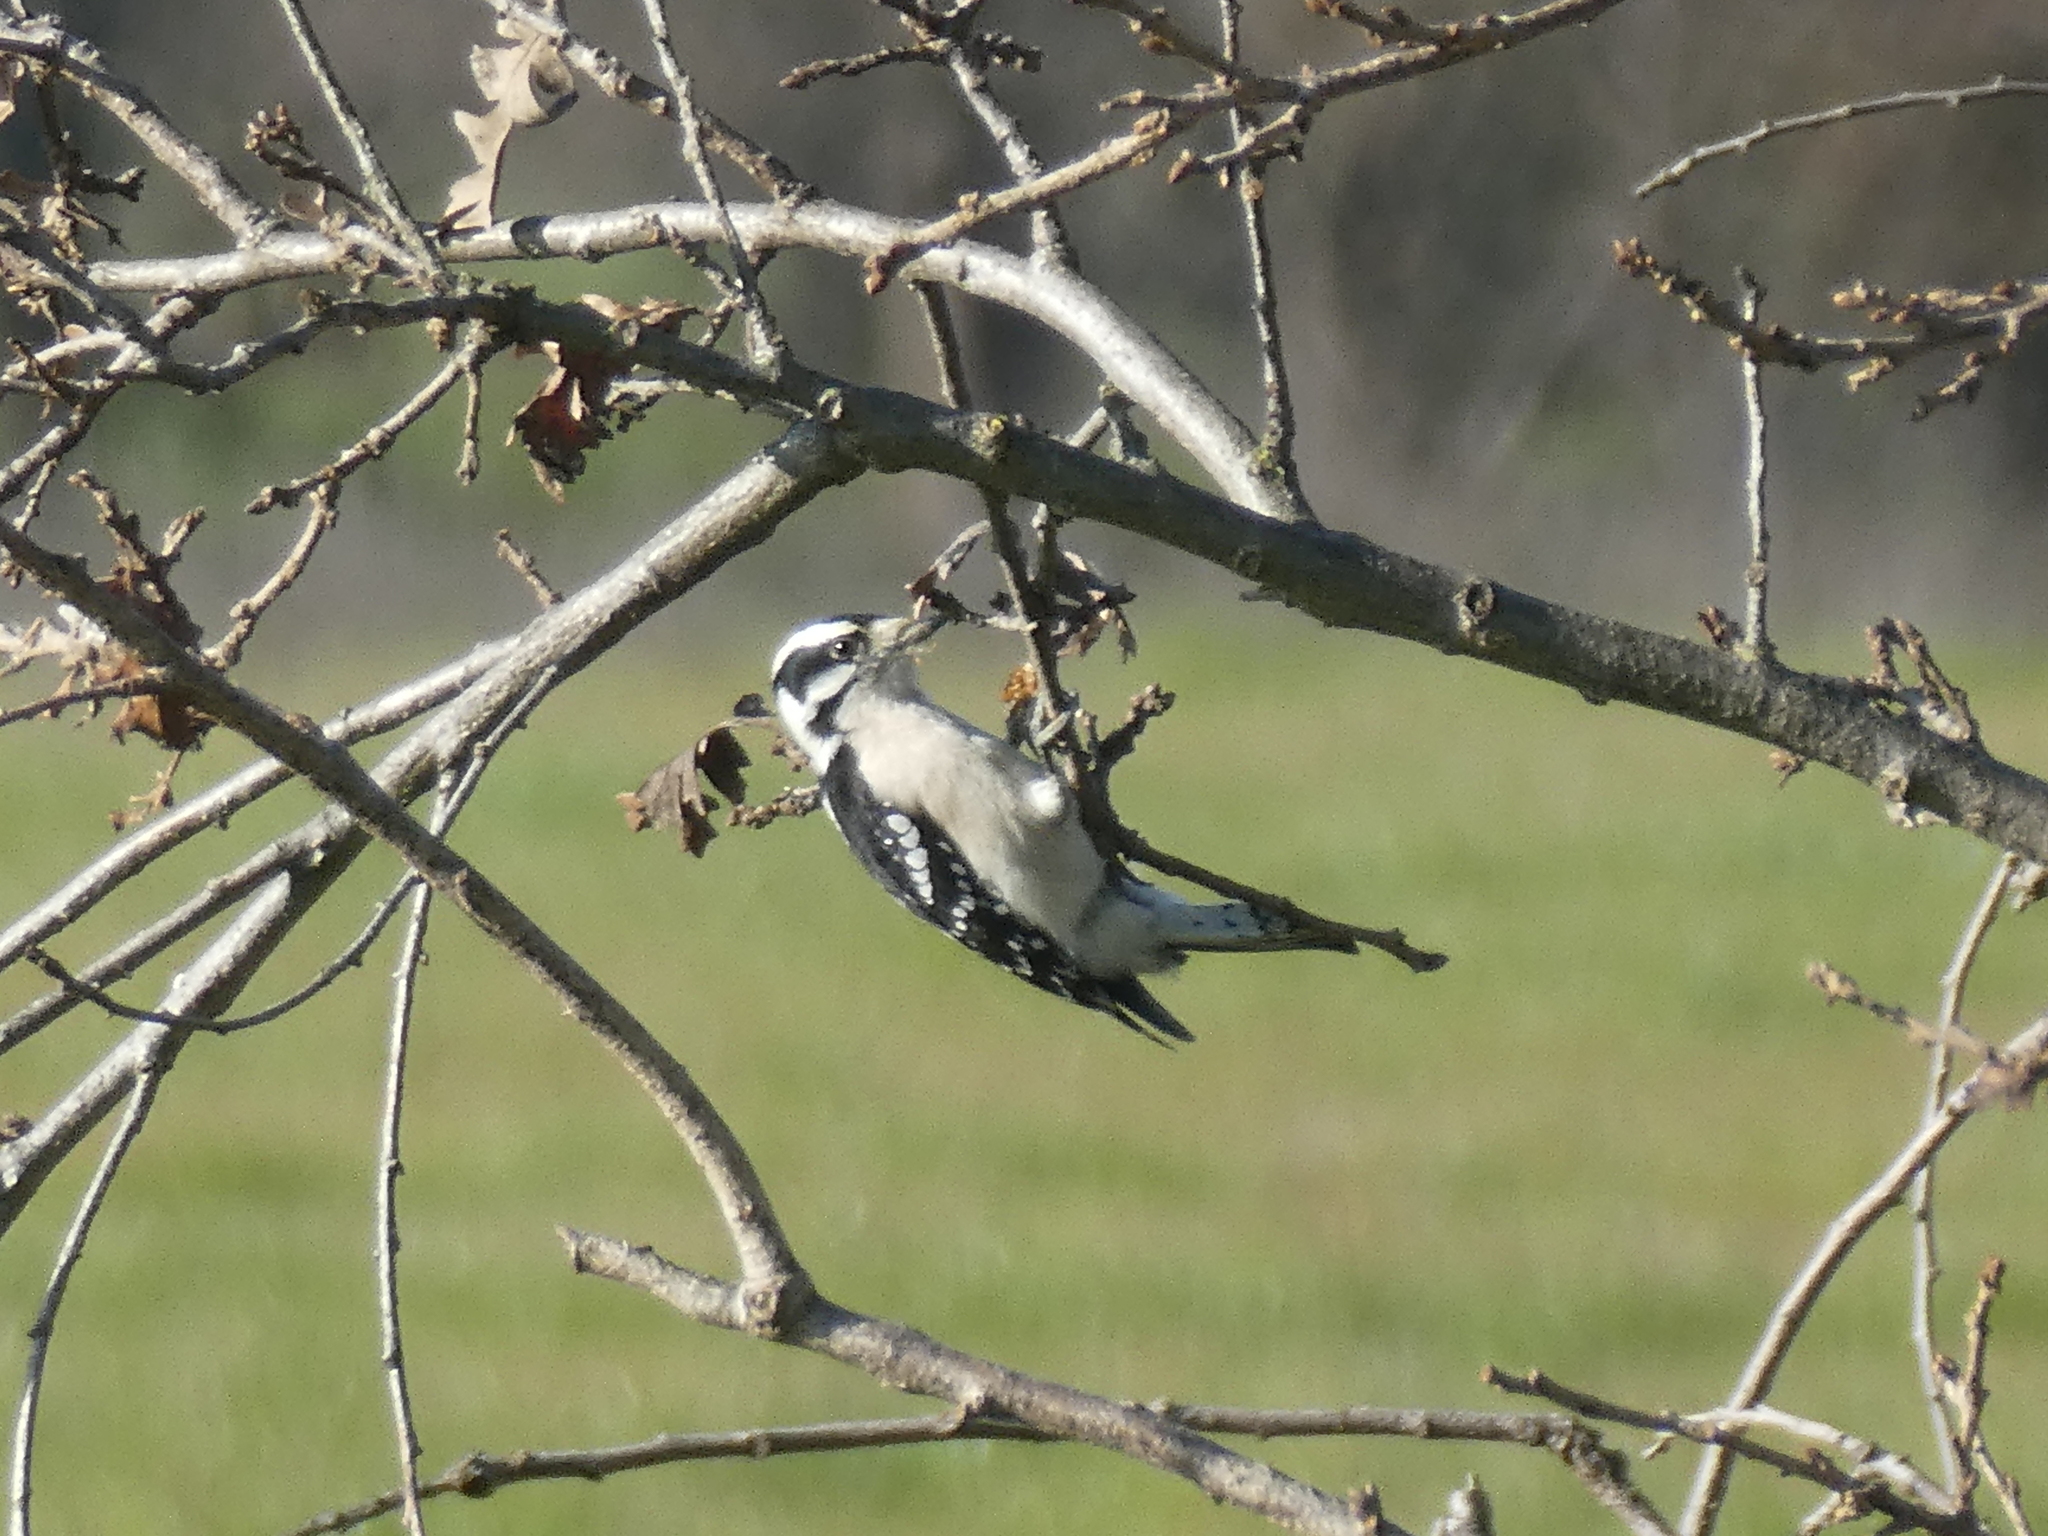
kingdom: Animalia
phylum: Chordata
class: Aves
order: Piciformes
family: Picidae
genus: Dryobates
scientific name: Dryobates pubescens
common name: Downy woodpecker
